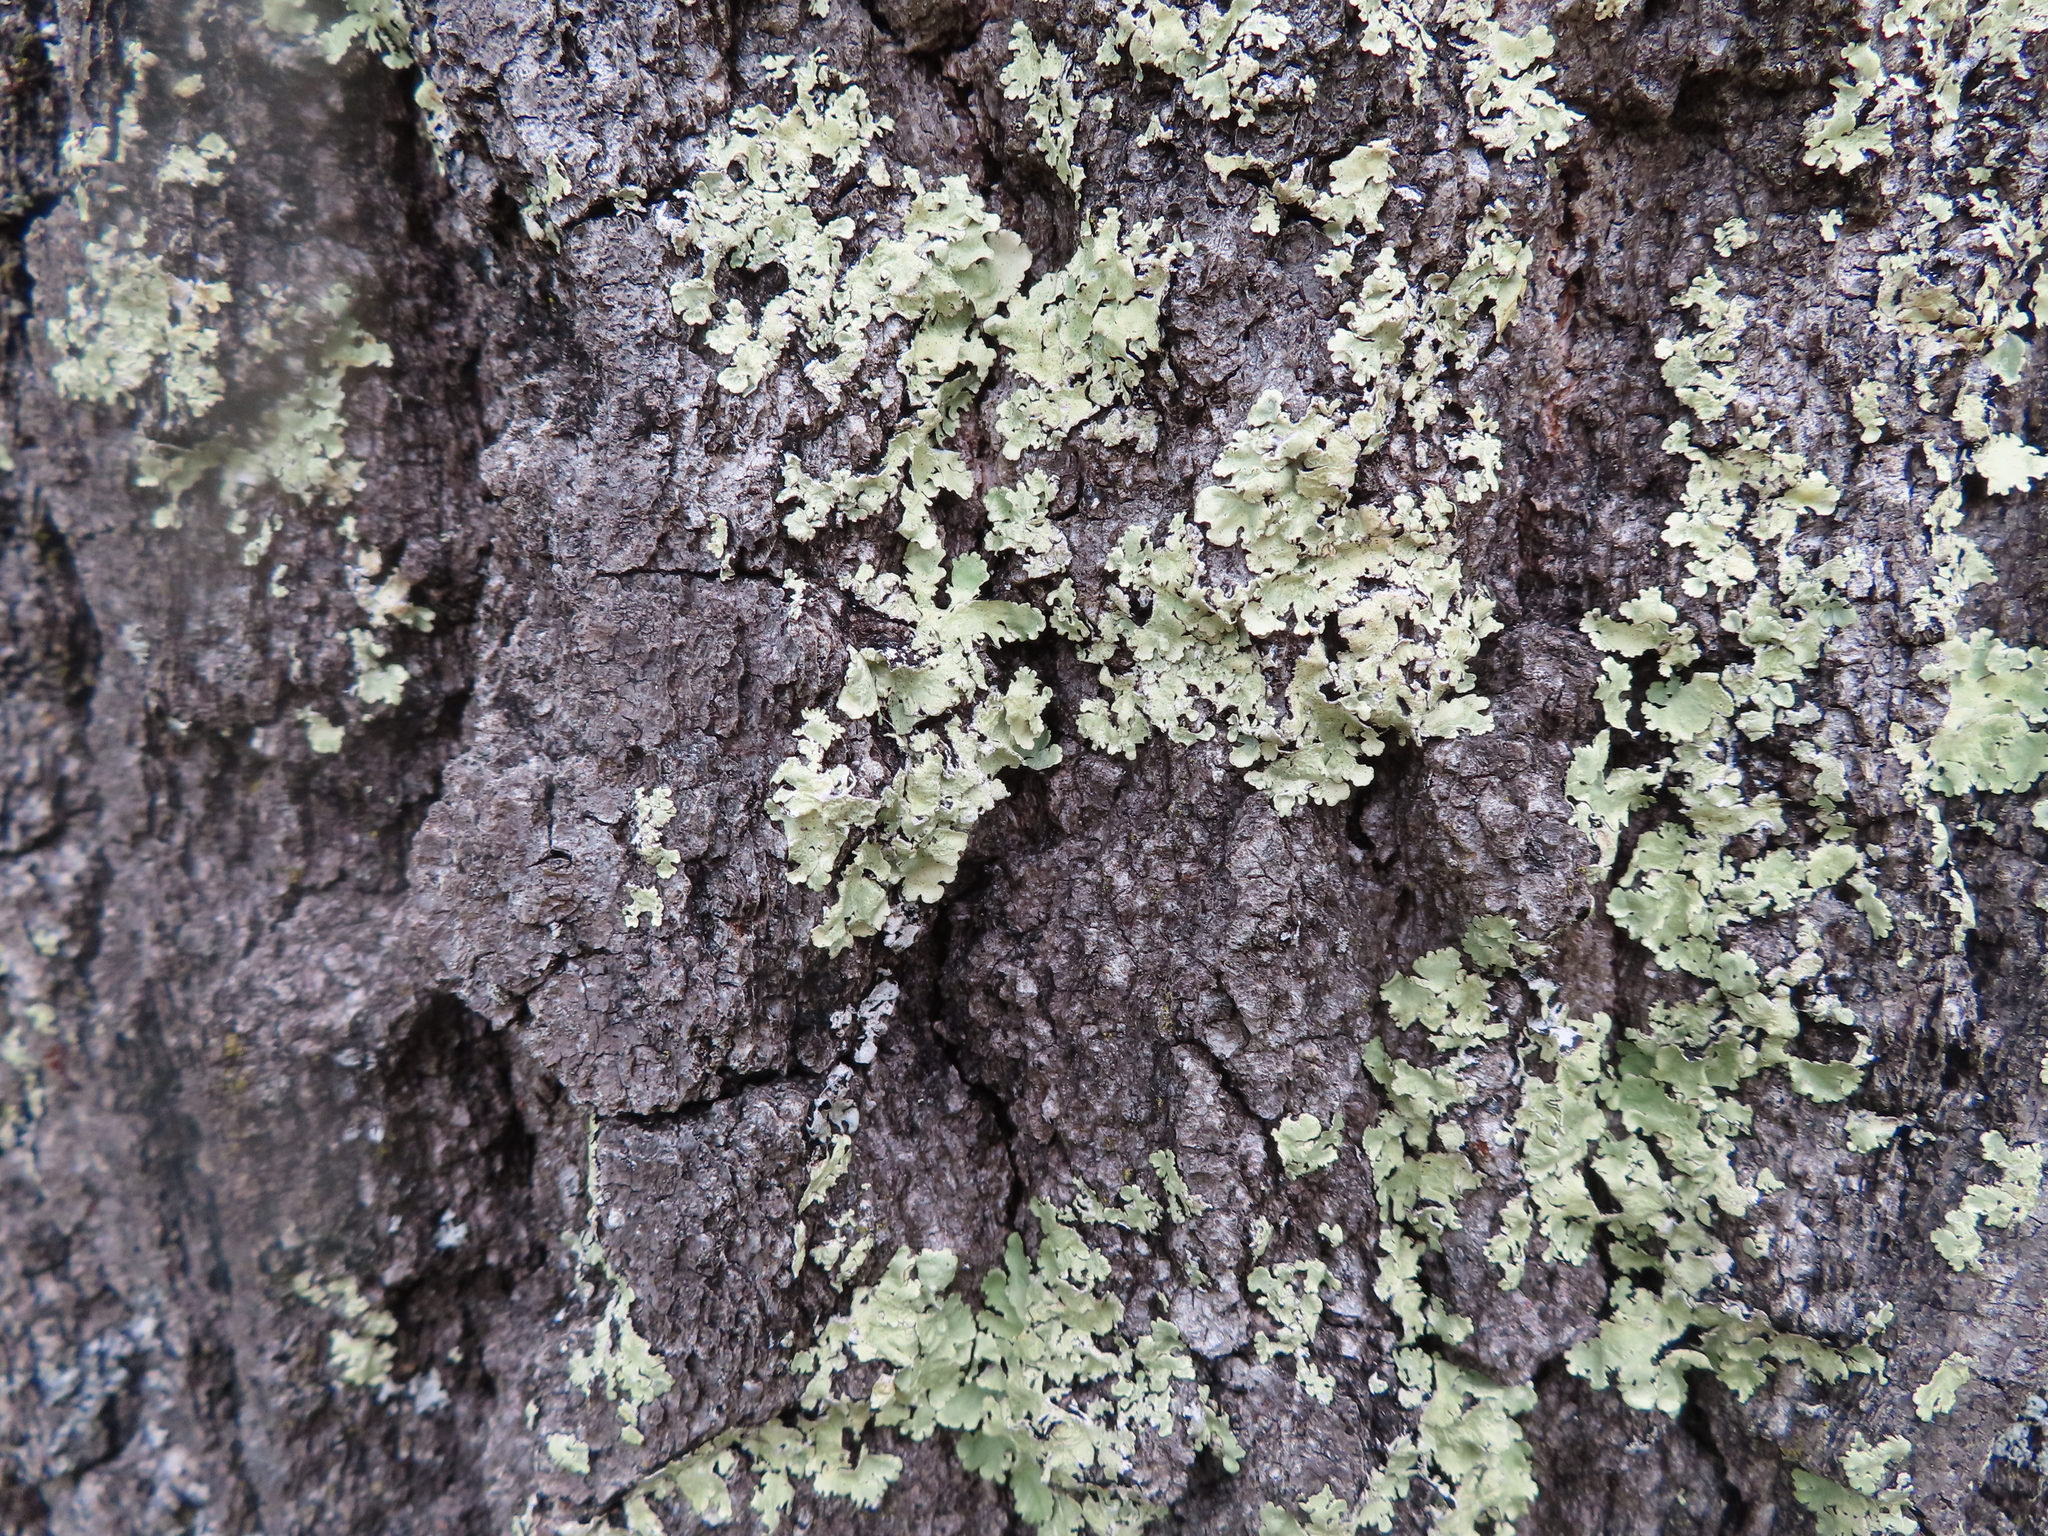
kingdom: Fungi
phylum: Ascomycota
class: Lecanoromycetes
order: Lecanorales
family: Parmeliaceae
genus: Flavoparmelia
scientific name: Flavoparmelia caperata
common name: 40-mile per hour lichen
